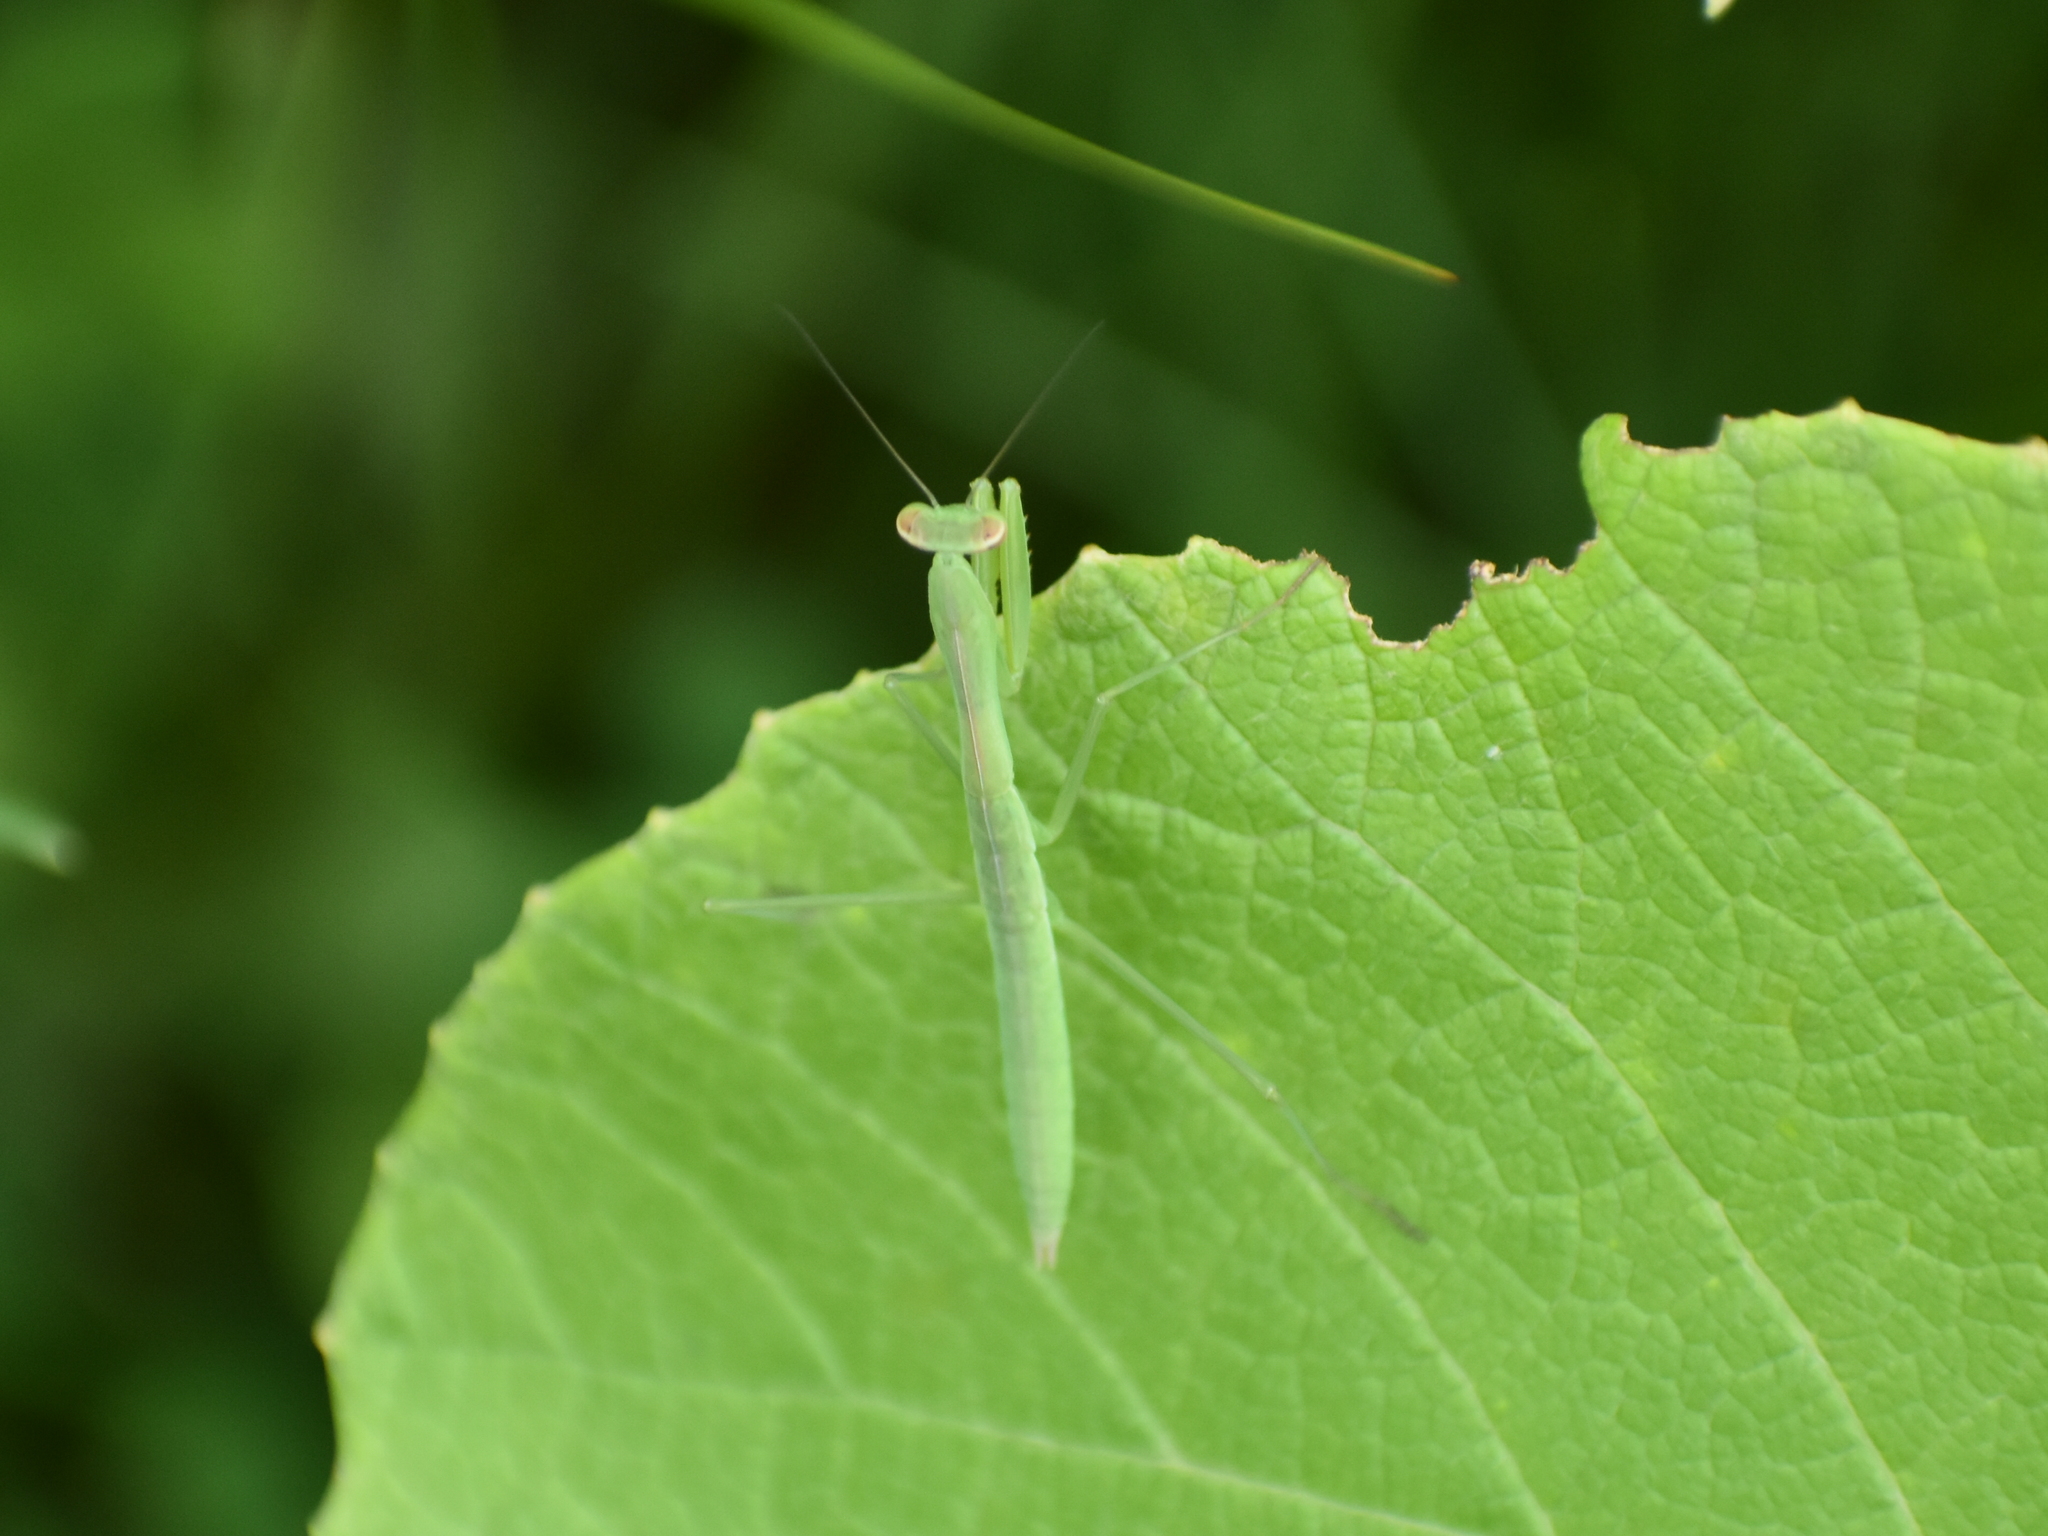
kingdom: Animalia
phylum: Arthropoda
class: Insecta
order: Mantodea
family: Mantidae
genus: Tenodera
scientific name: Tenodera sinensis
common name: Chinese mantis
